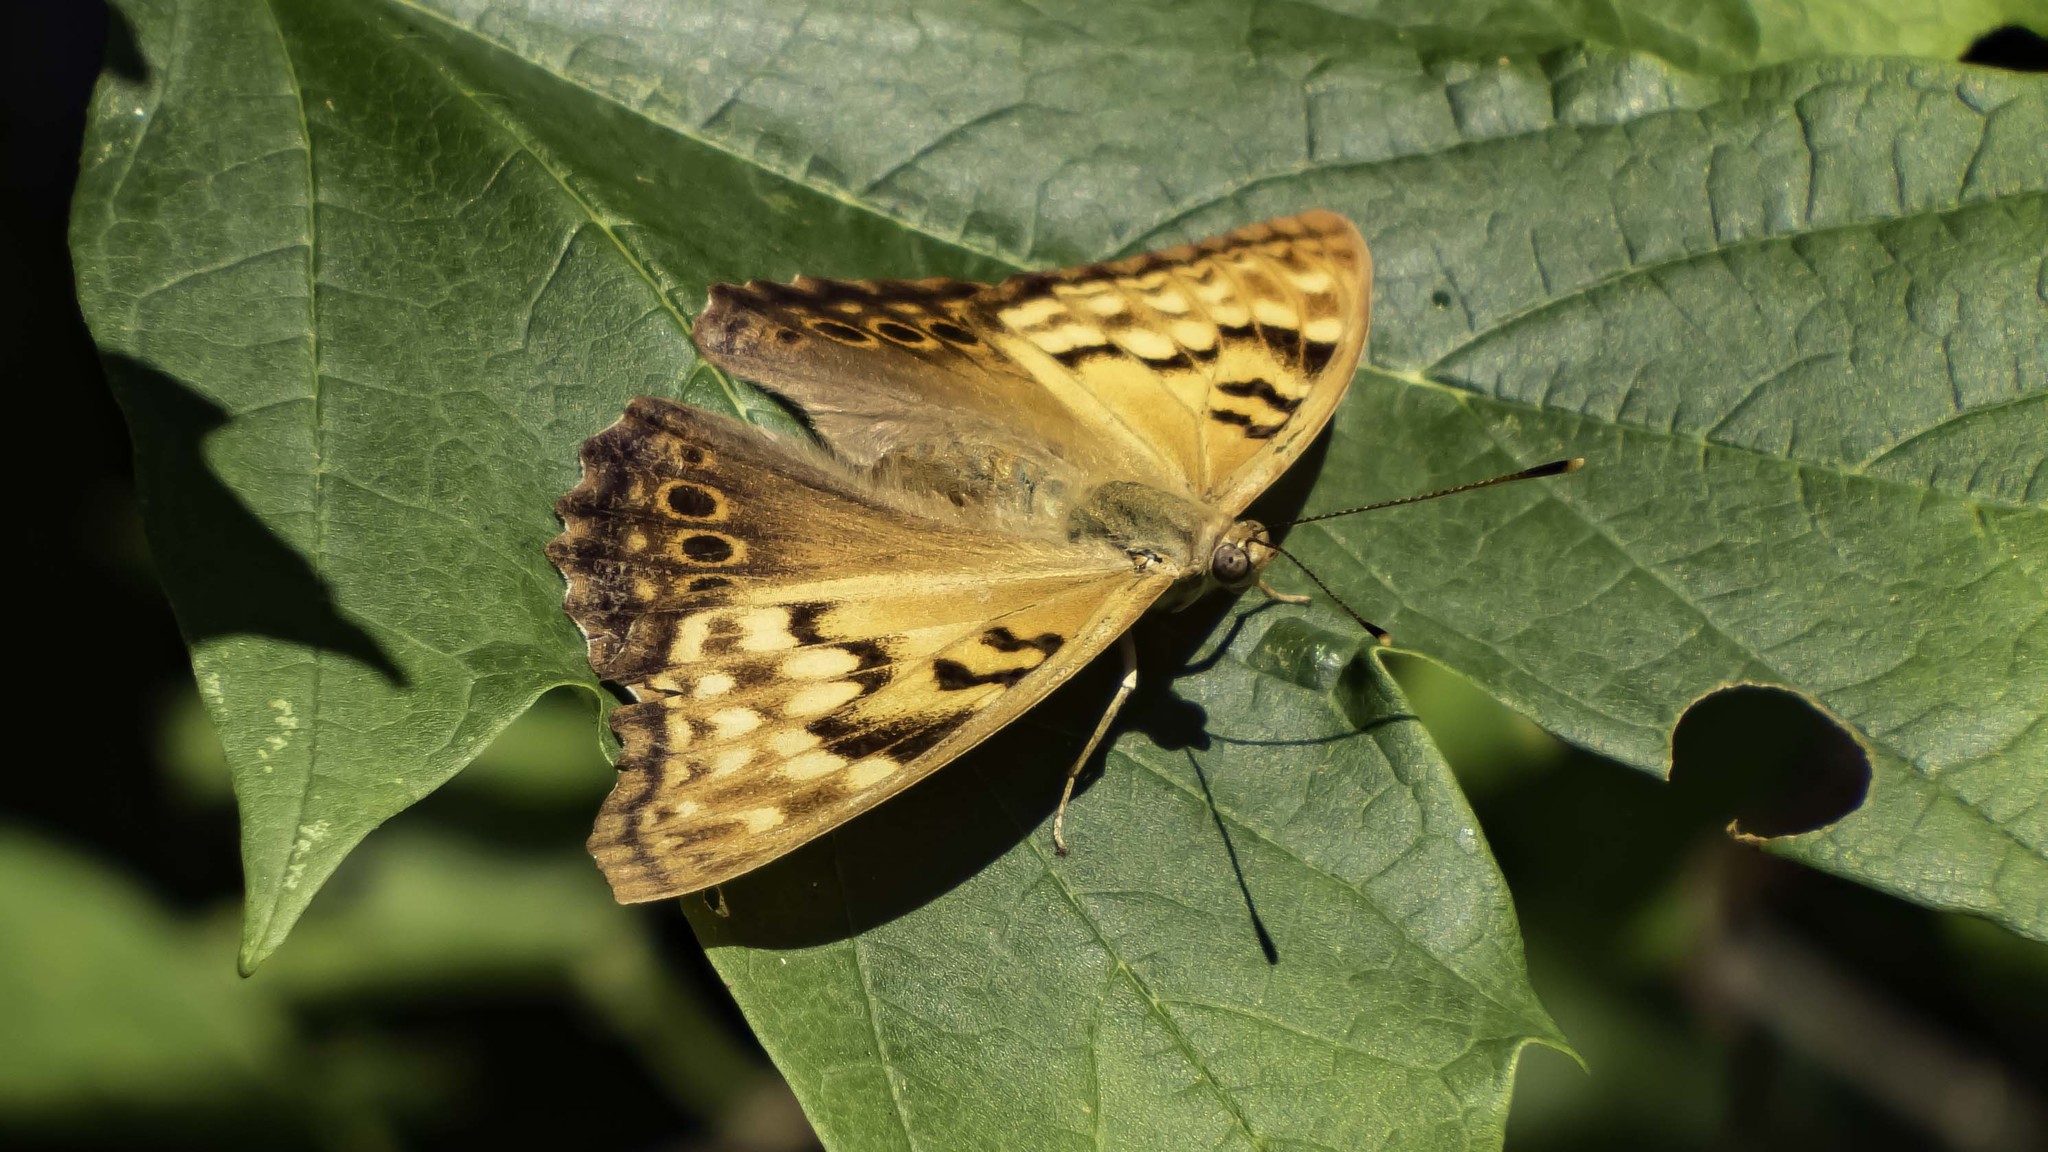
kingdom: Animalia
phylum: Arthropoda
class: Insecta
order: Lepidoptera
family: Nymphalidae
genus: Asterocampa
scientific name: Asterocampa clyton
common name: Tawny emperor
